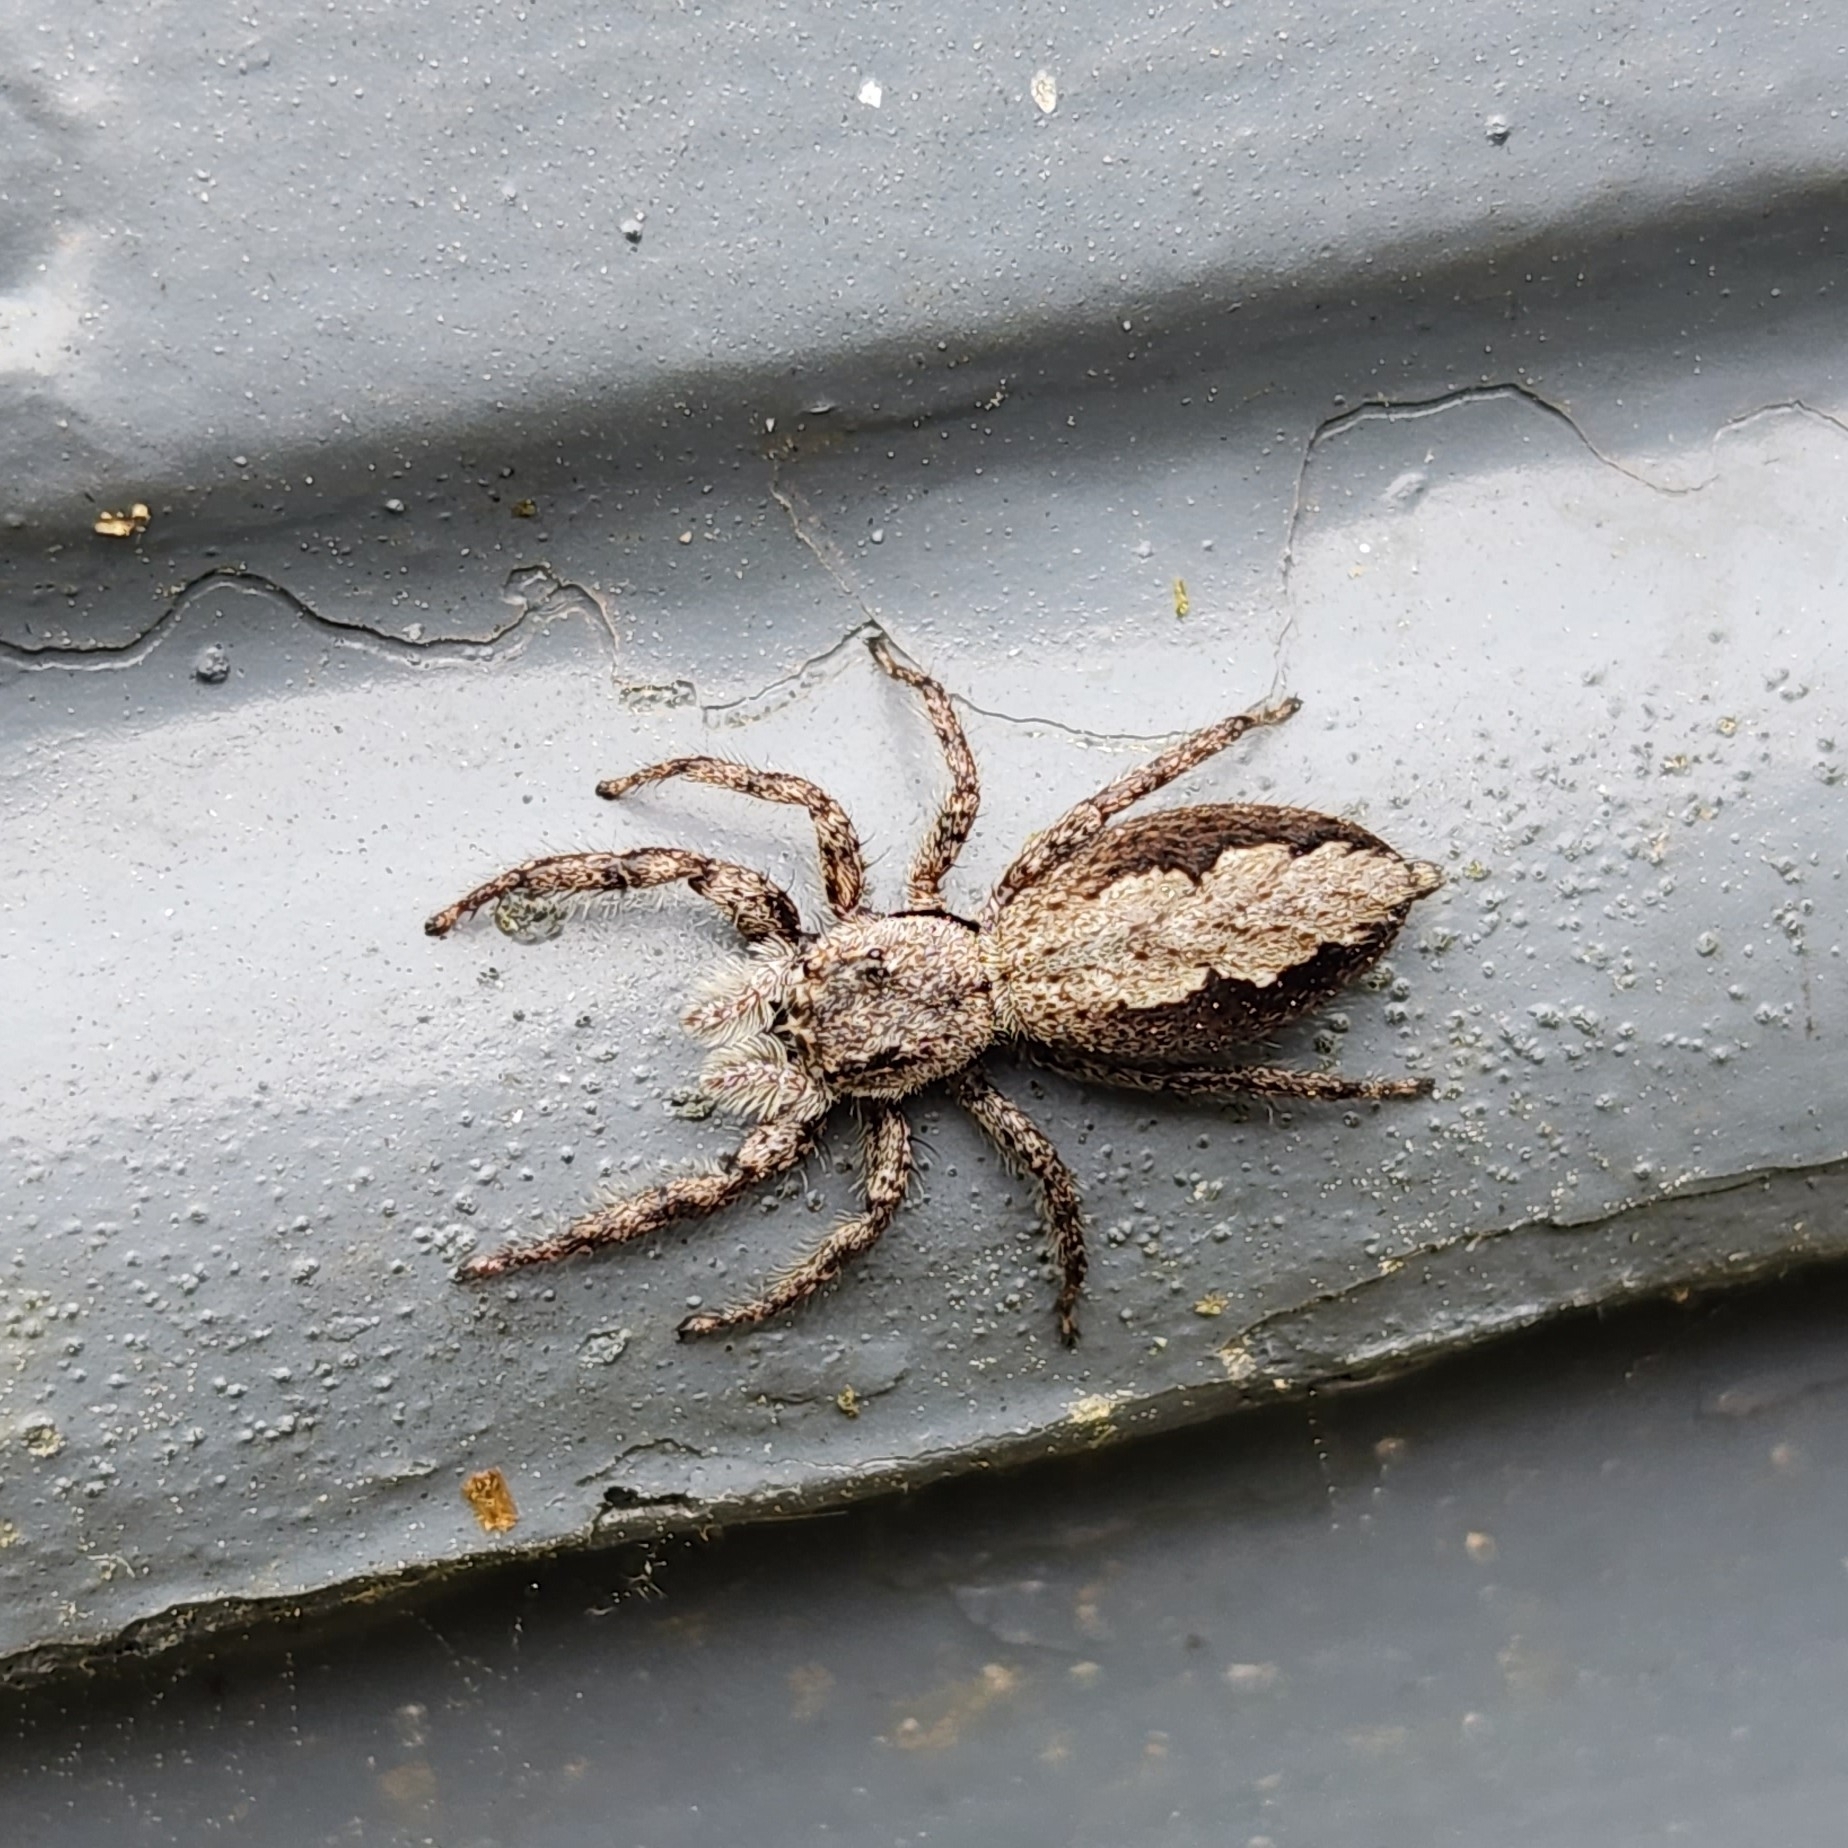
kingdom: Animalia
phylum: Arthropoda
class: Arachnida
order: Araneae
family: Salticidae
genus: Platycryptus
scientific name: Platycryptus undatus
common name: Tan jumping spider
